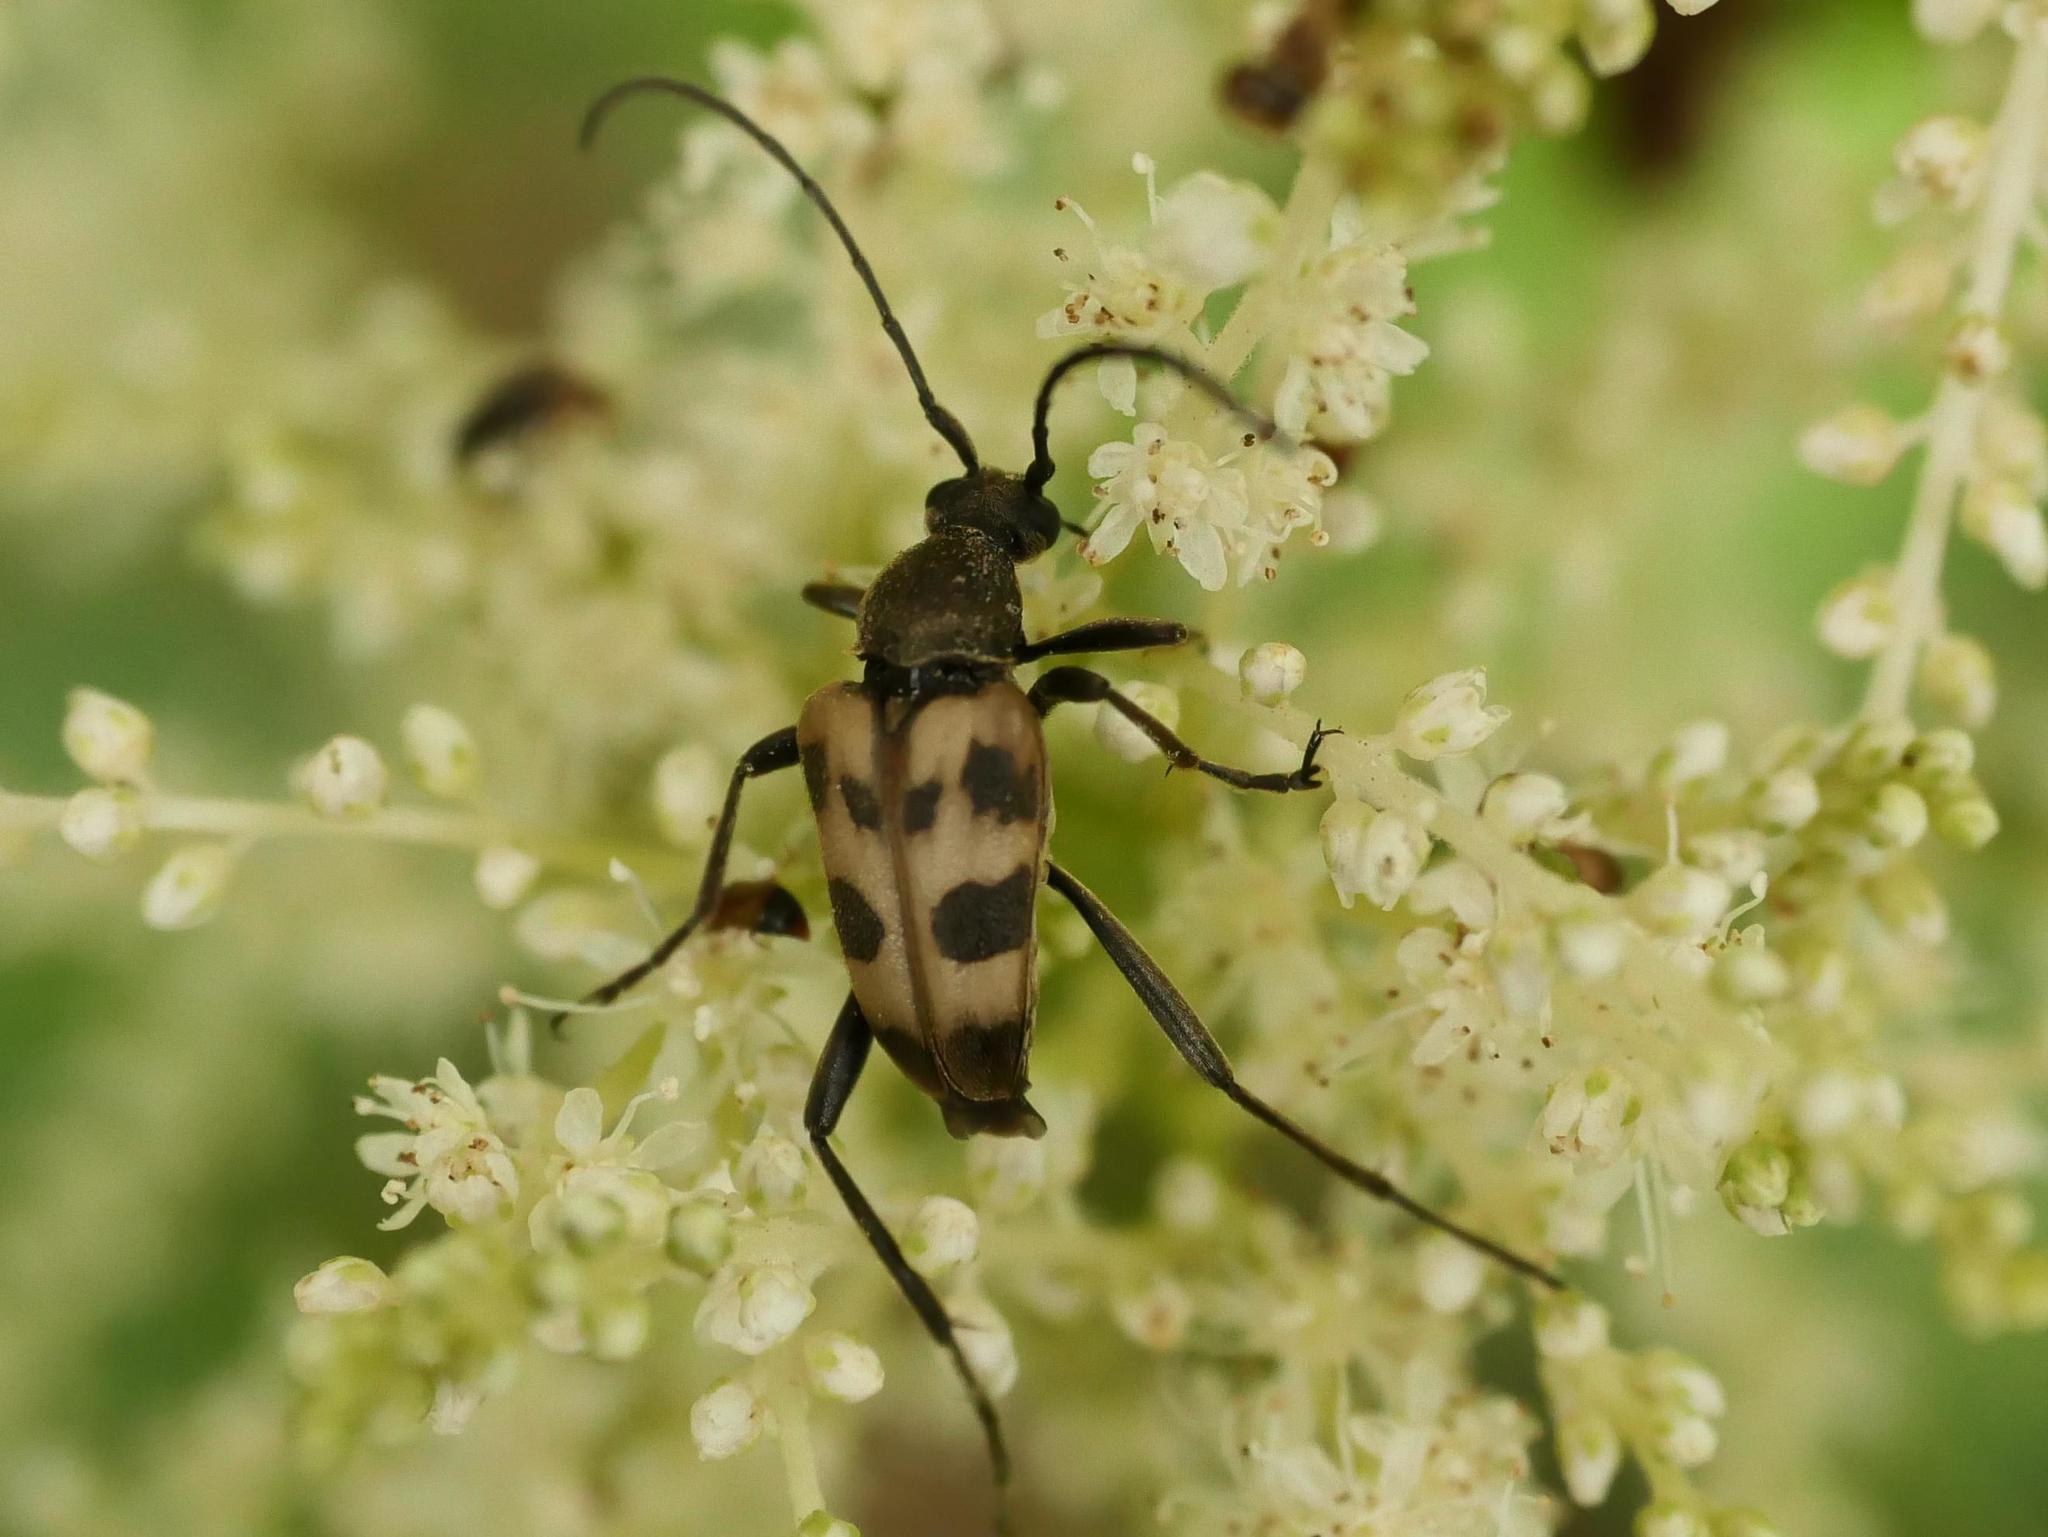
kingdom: Animalia
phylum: Arthropoda
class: Insecta
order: Coleoptera
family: Cerambycidae
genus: Pachytodes
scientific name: Pachytodes cerambyciformis
